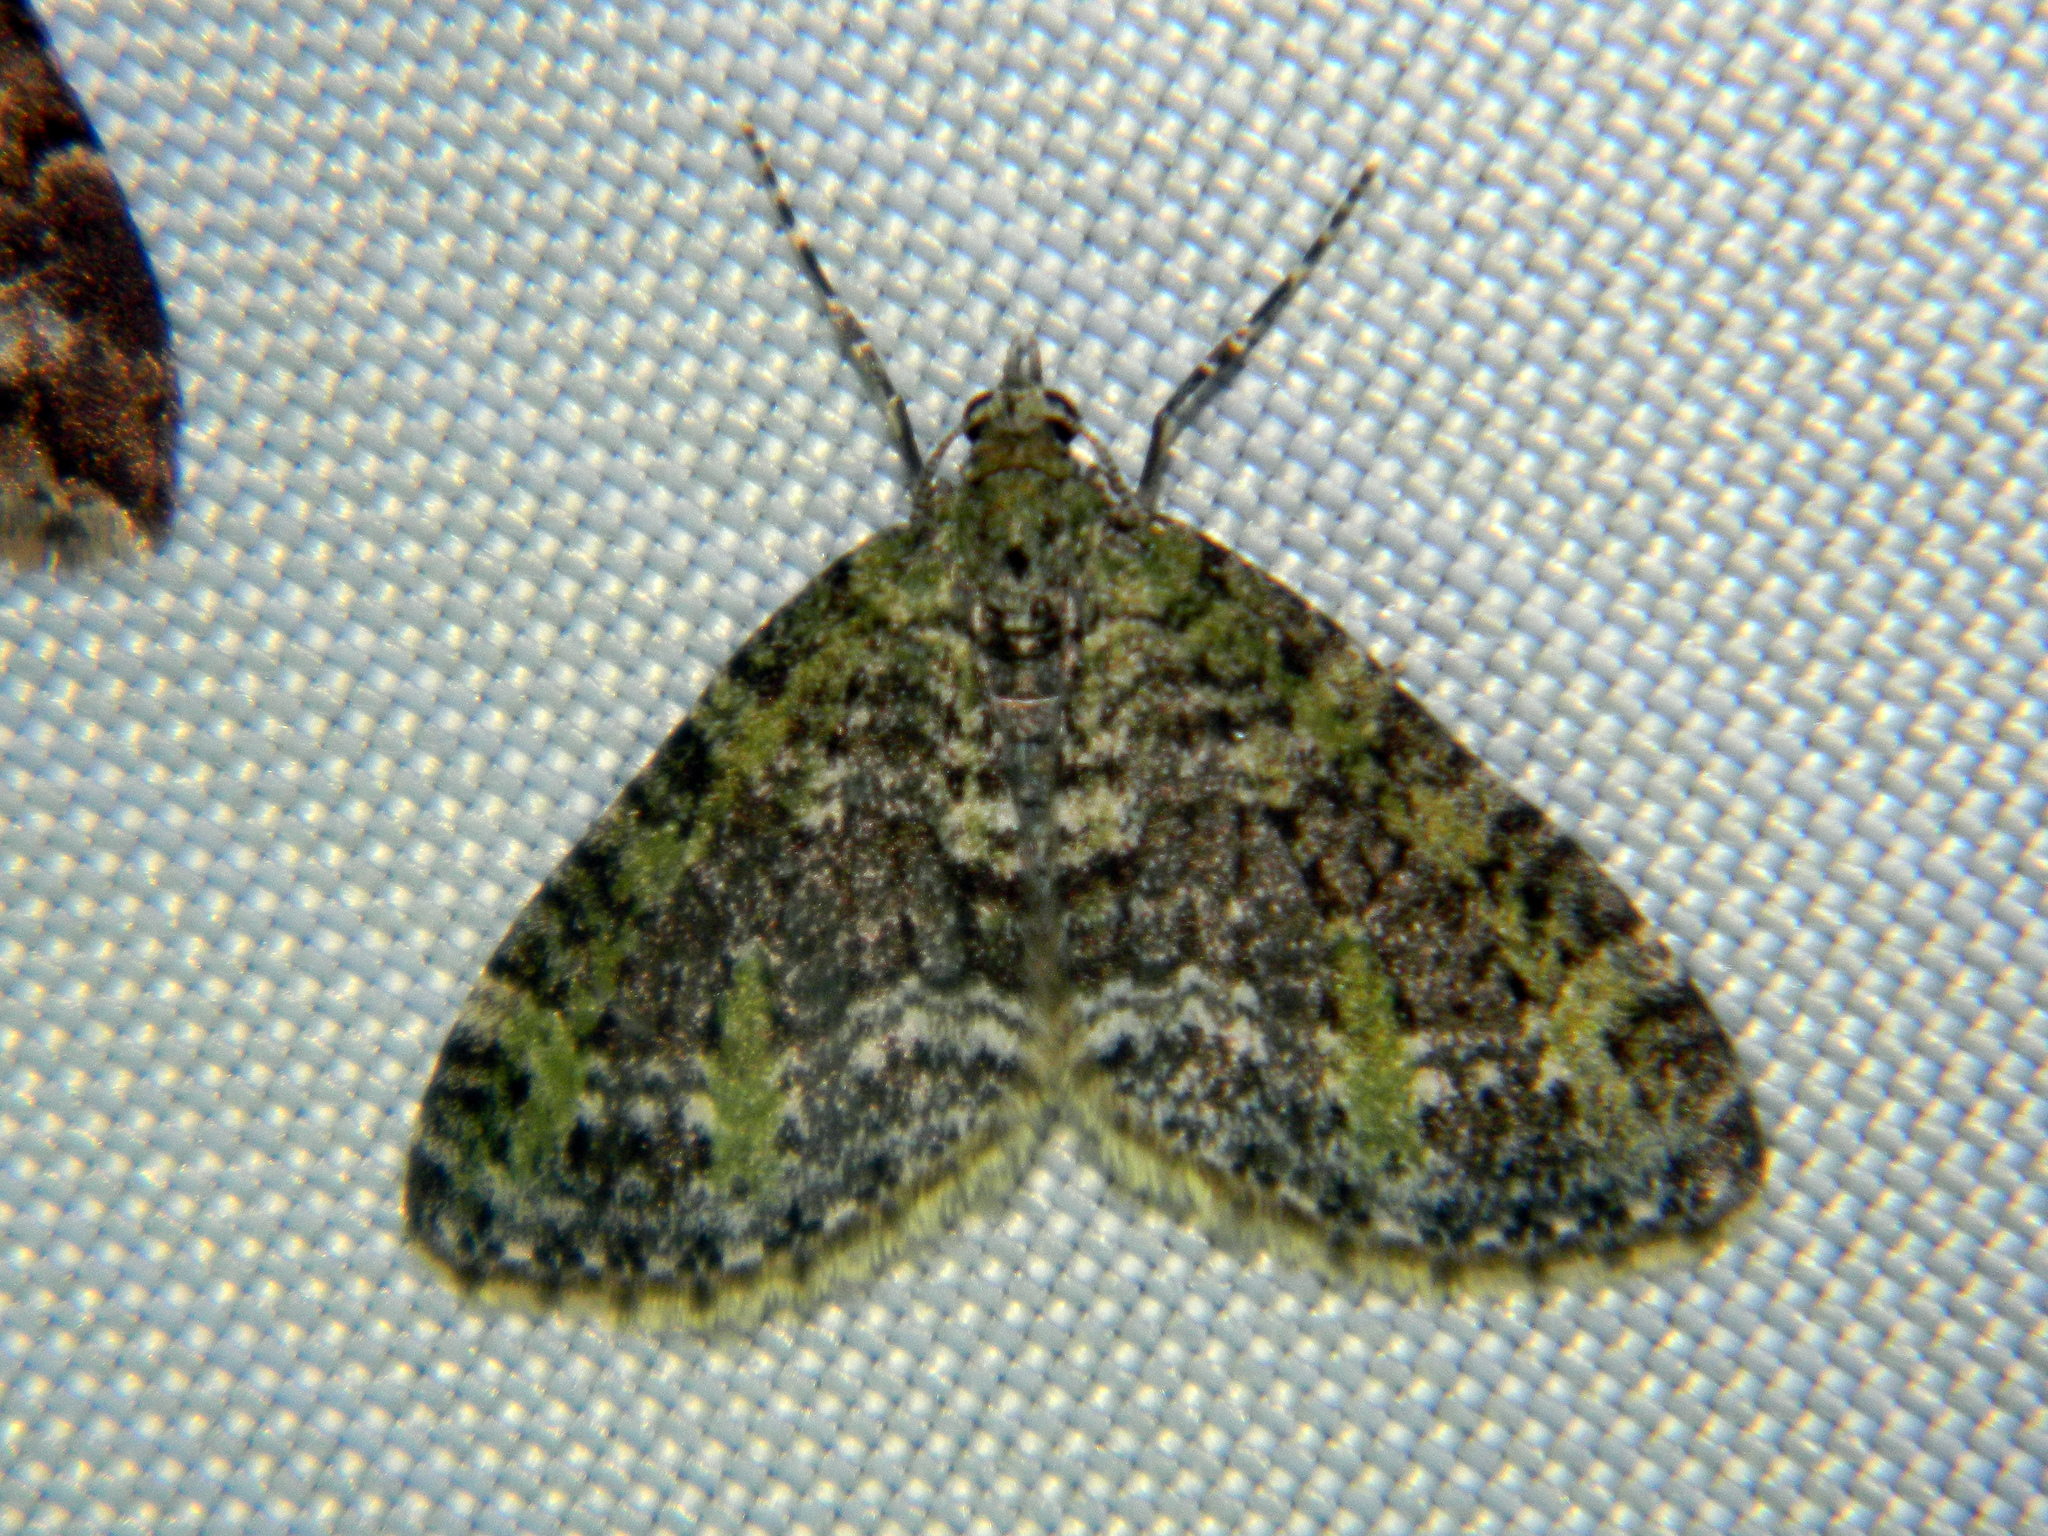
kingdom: Animalia
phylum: Arthropoda
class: Insecta
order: Lepidoptera
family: Geometridae
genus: Acasis
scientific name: Acasis viridata
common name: Olive-and-black carpet moth
